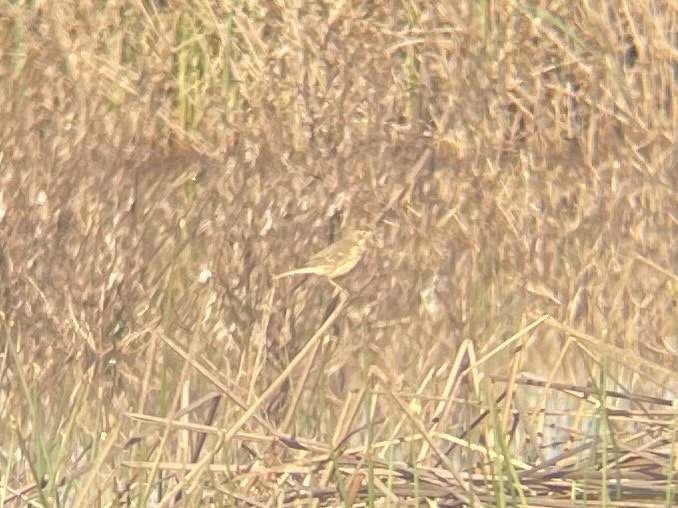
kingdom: Animalia
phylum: Chordata
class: Aves
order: Passeriformes
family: Motacillidae
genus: Anthus
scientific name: Anthus rubescens
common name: Buff-bellied pipit
